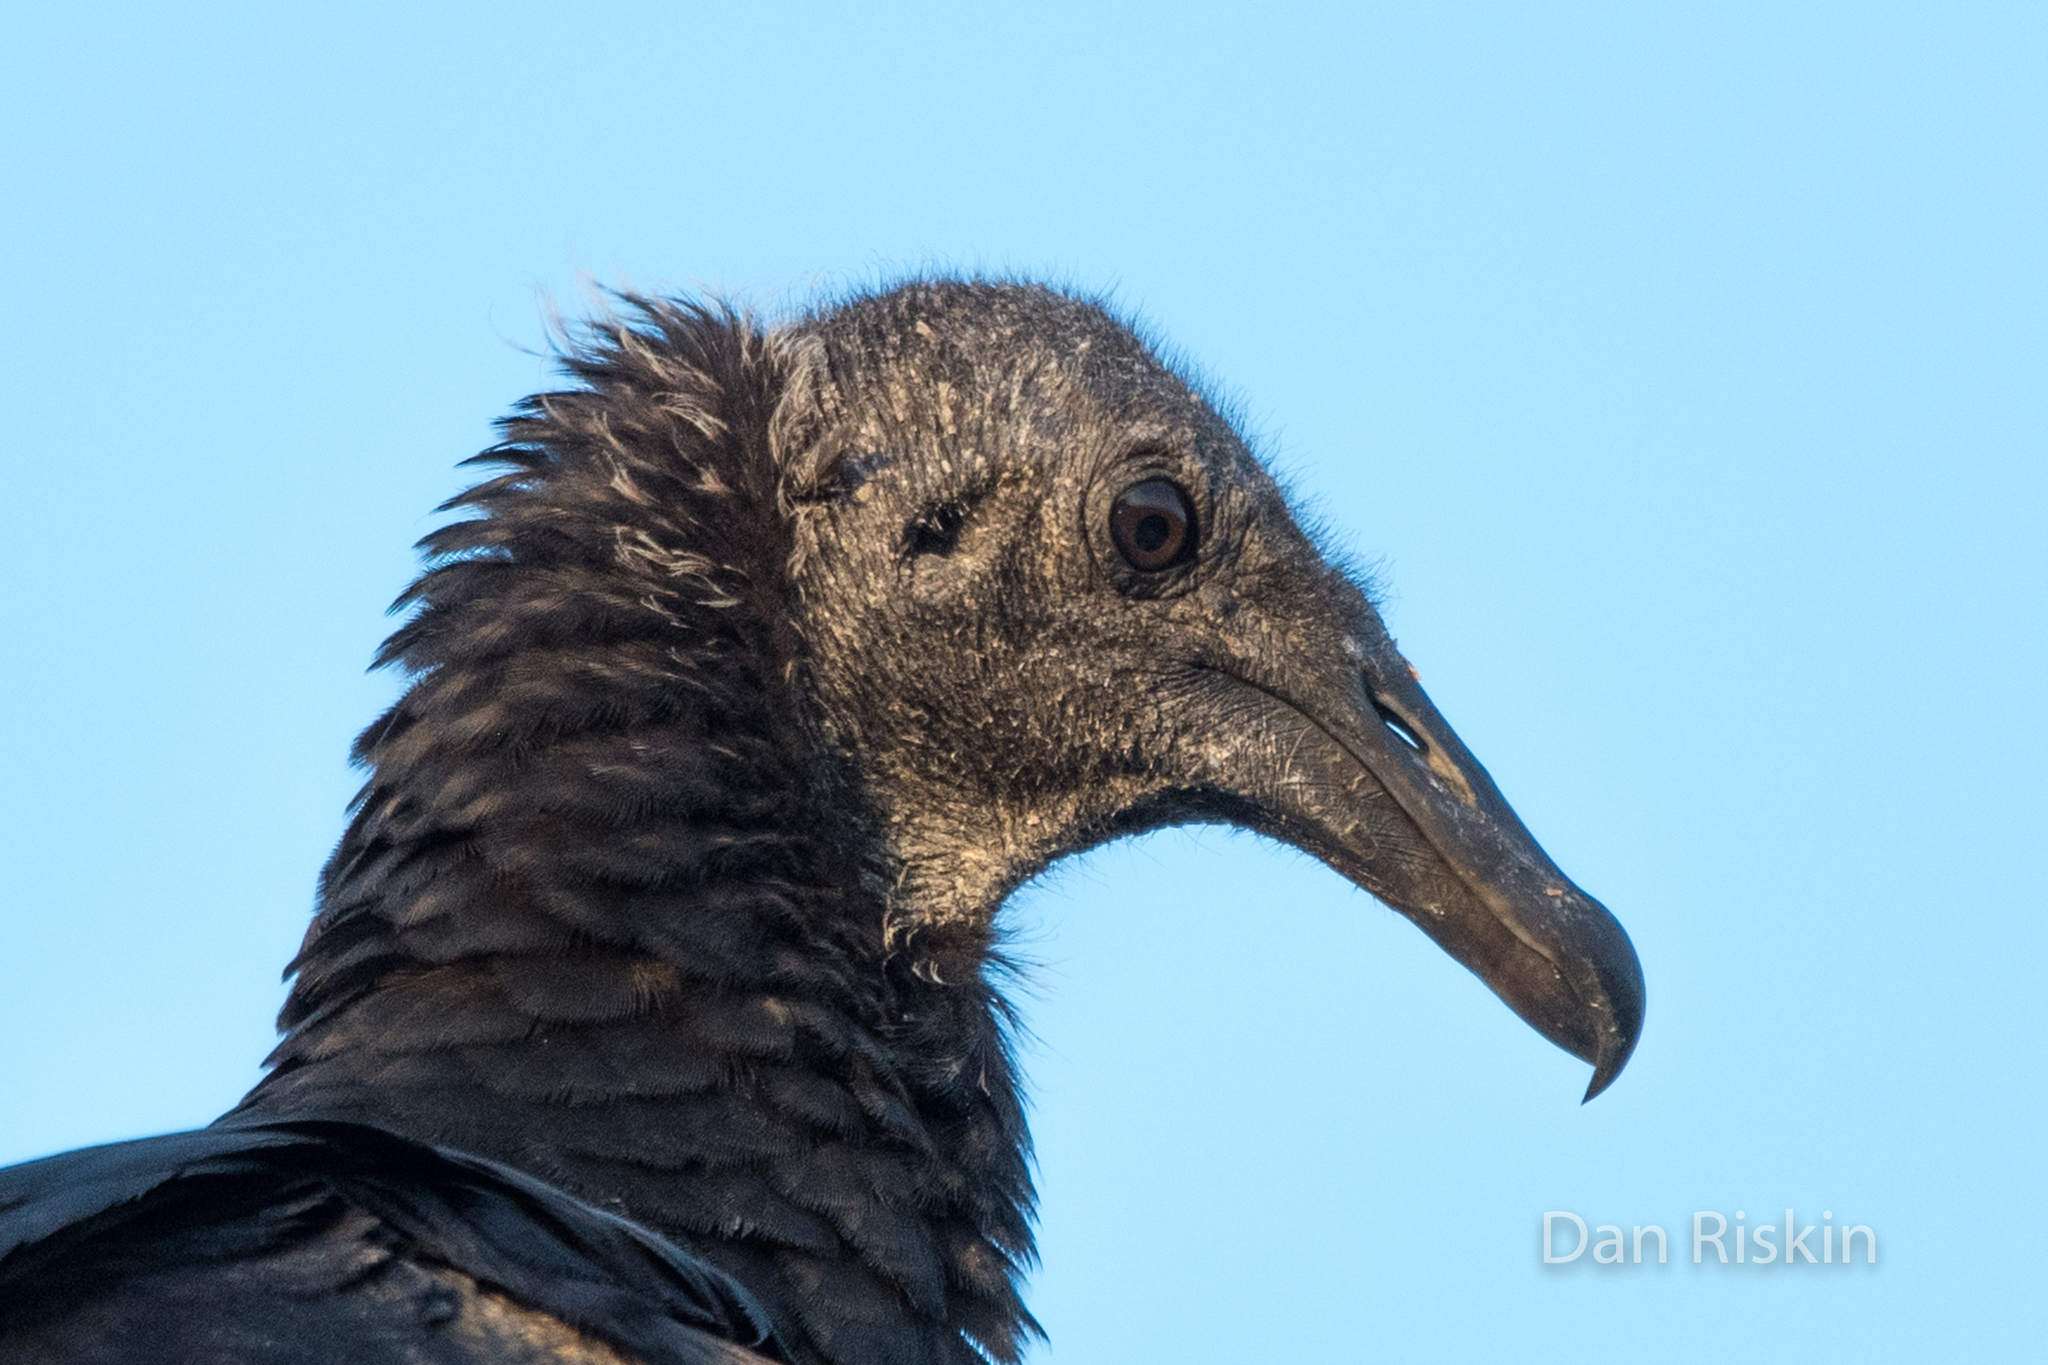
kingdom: Animalia
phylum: Chordata
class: Aves
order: Accipitriformes
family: Cathartidae
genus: Coragyps
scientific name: Coragyps atratus
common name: Black vulture
